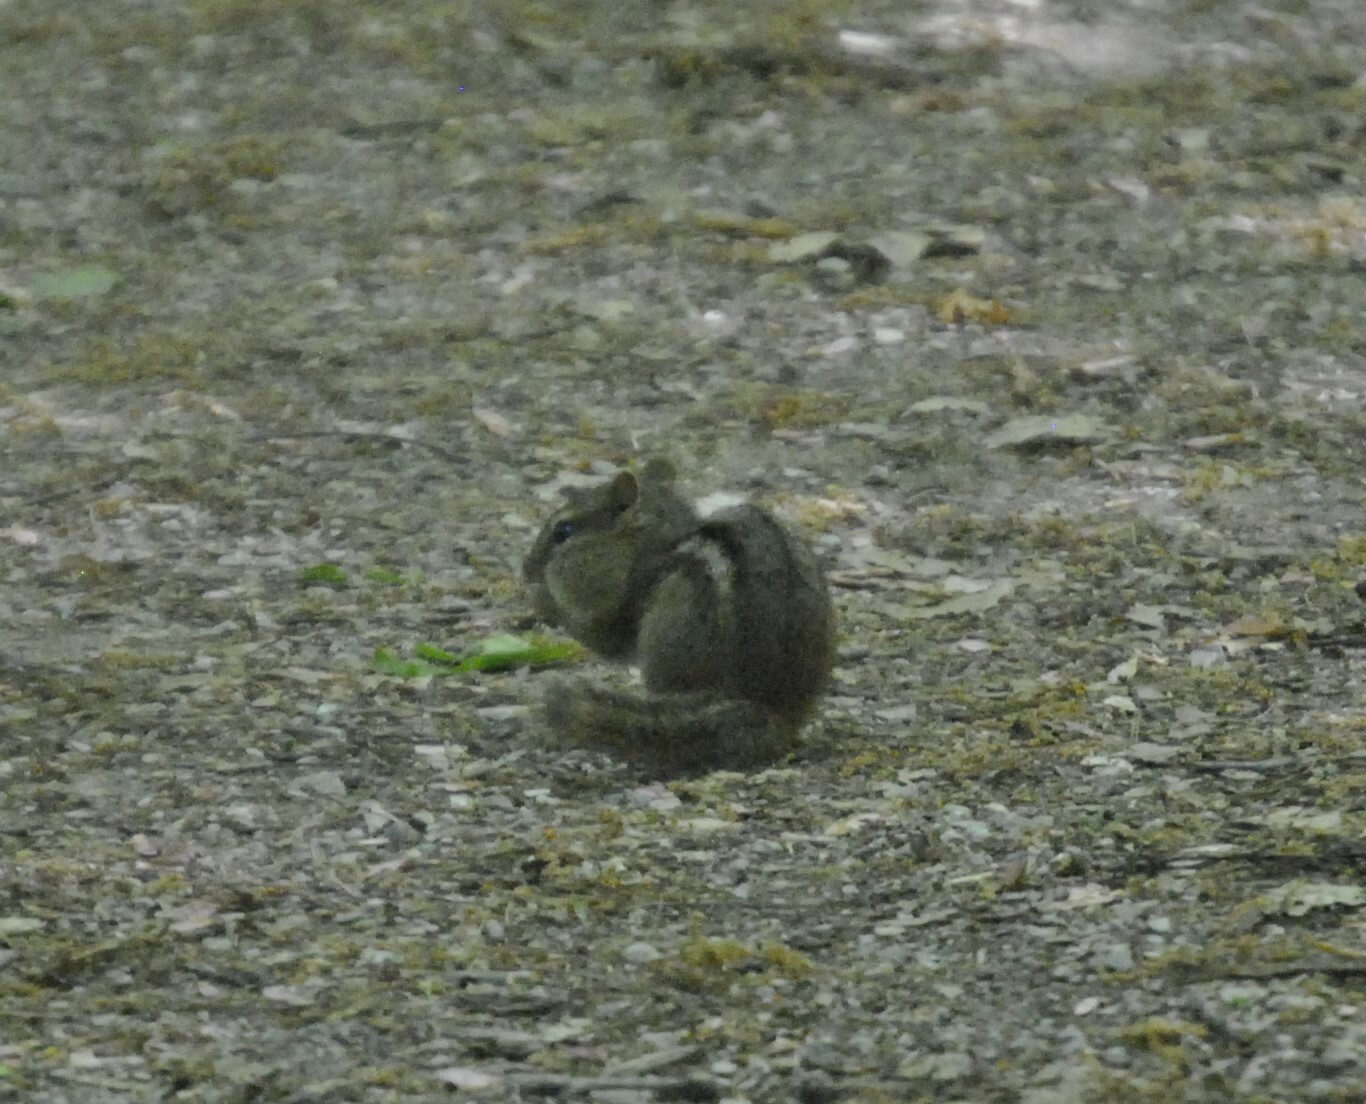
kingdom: Animalia
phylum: Chordata
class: Mammalia
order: Rodentia
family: Sciuridae
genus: Tamias
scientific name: Tamias striatus
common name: Eastern chipmunk
